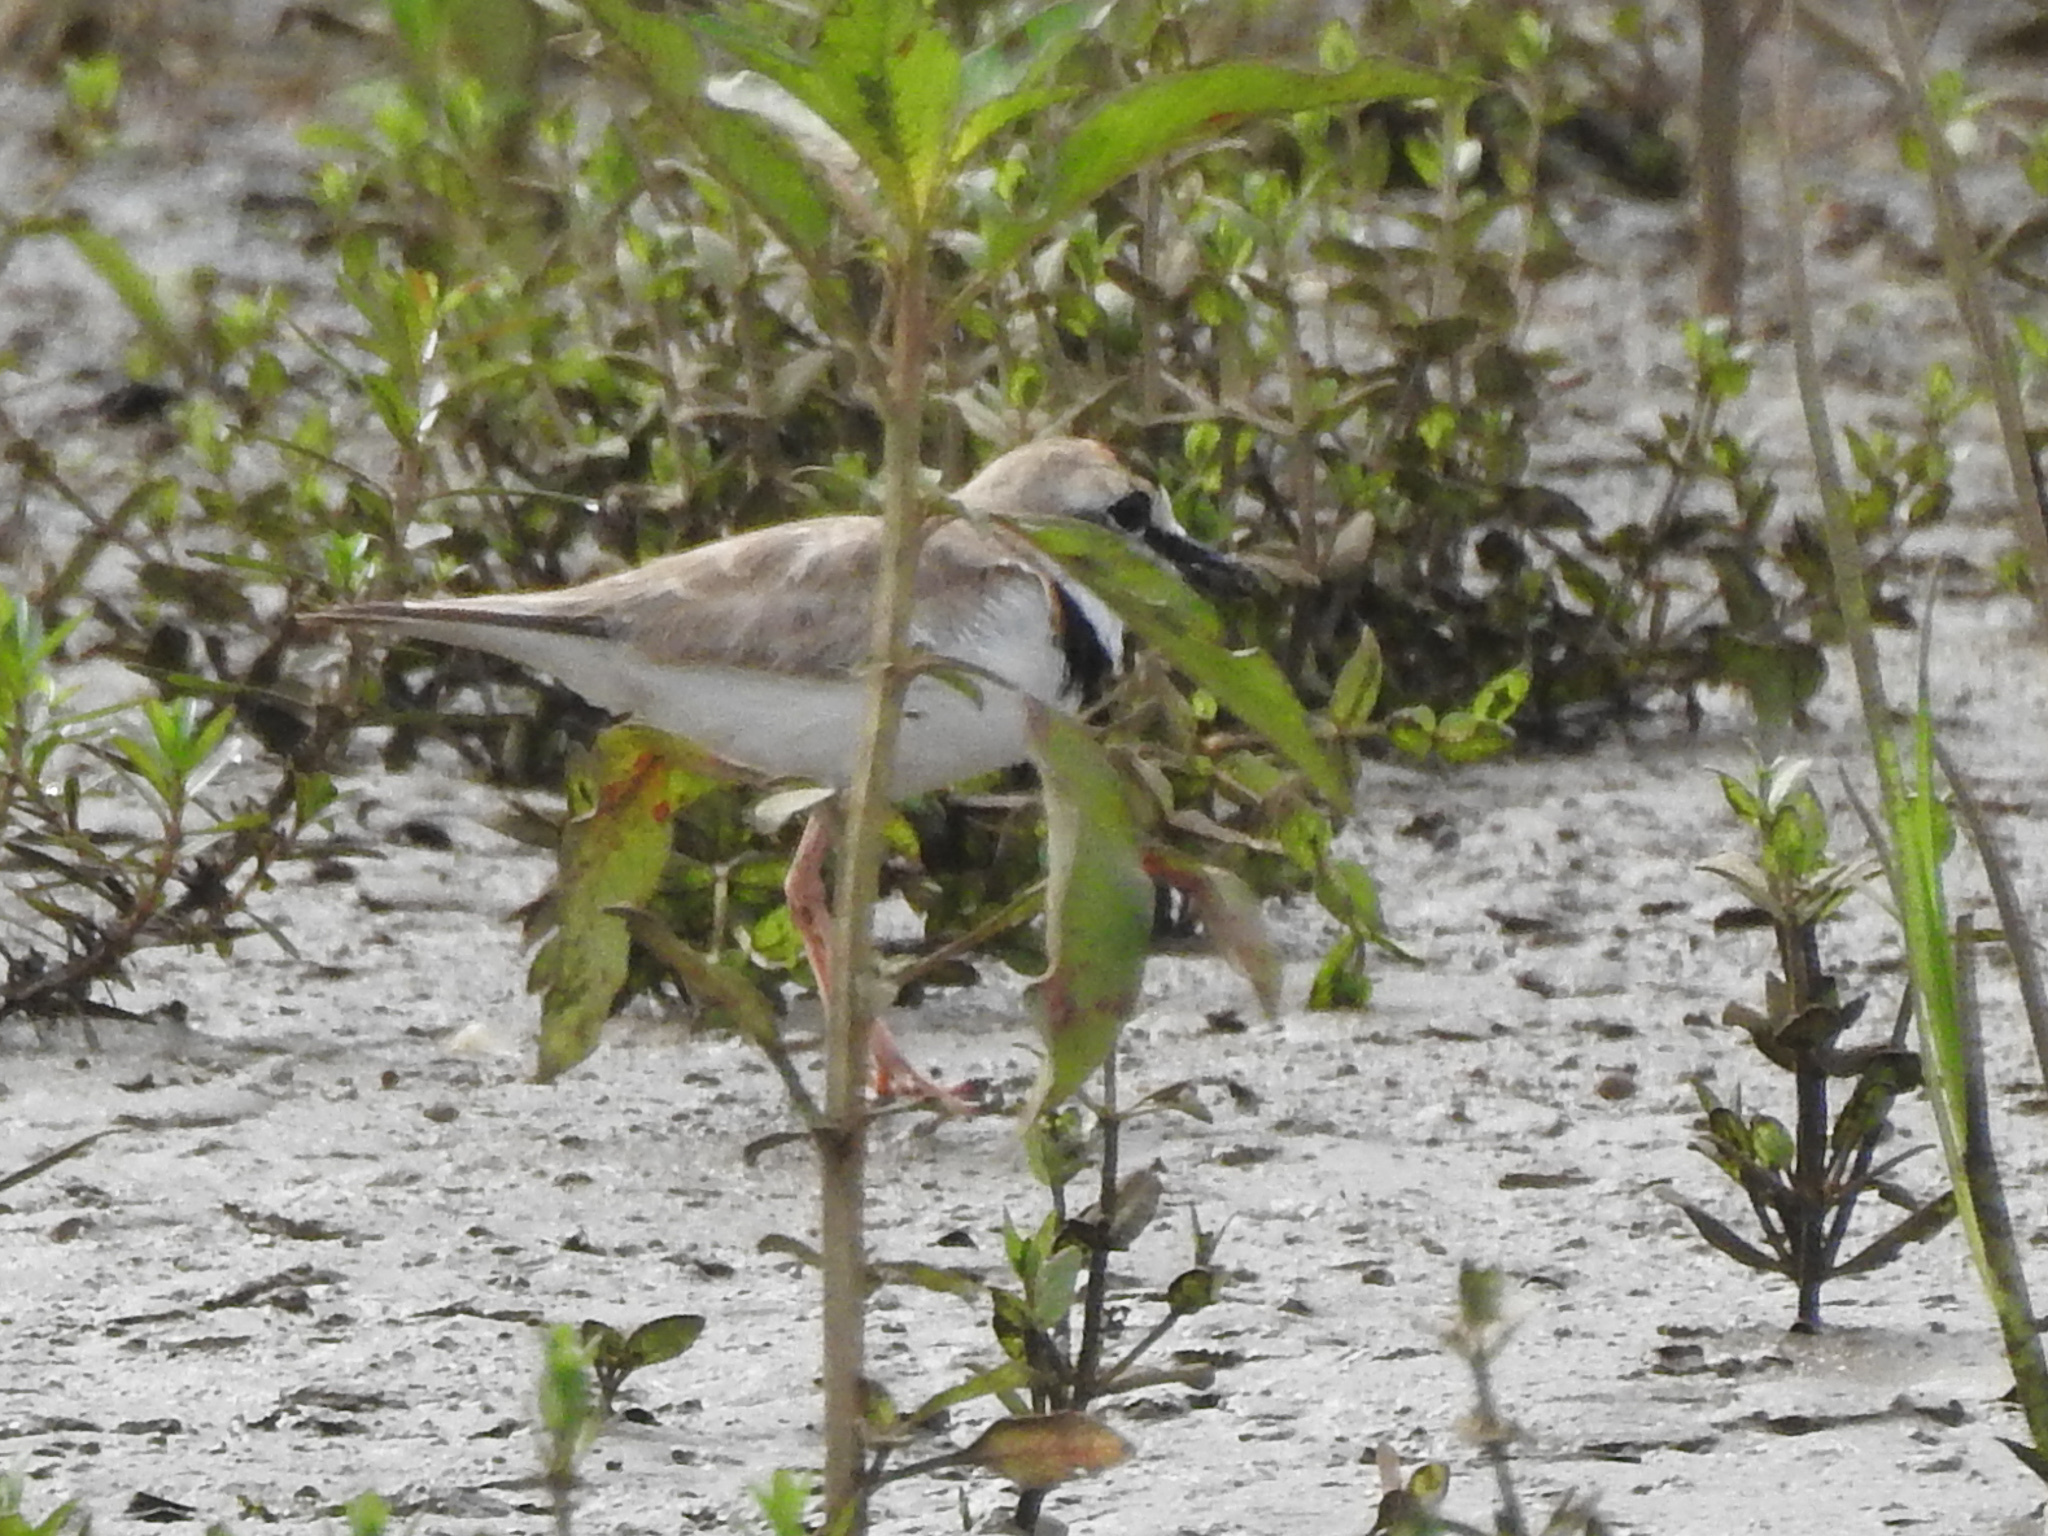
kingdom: Animalia
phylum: Chordata
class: Aves
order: Charadriiformes
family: Charadriidae
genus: Anarhynchus
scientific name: Anarhynchus
